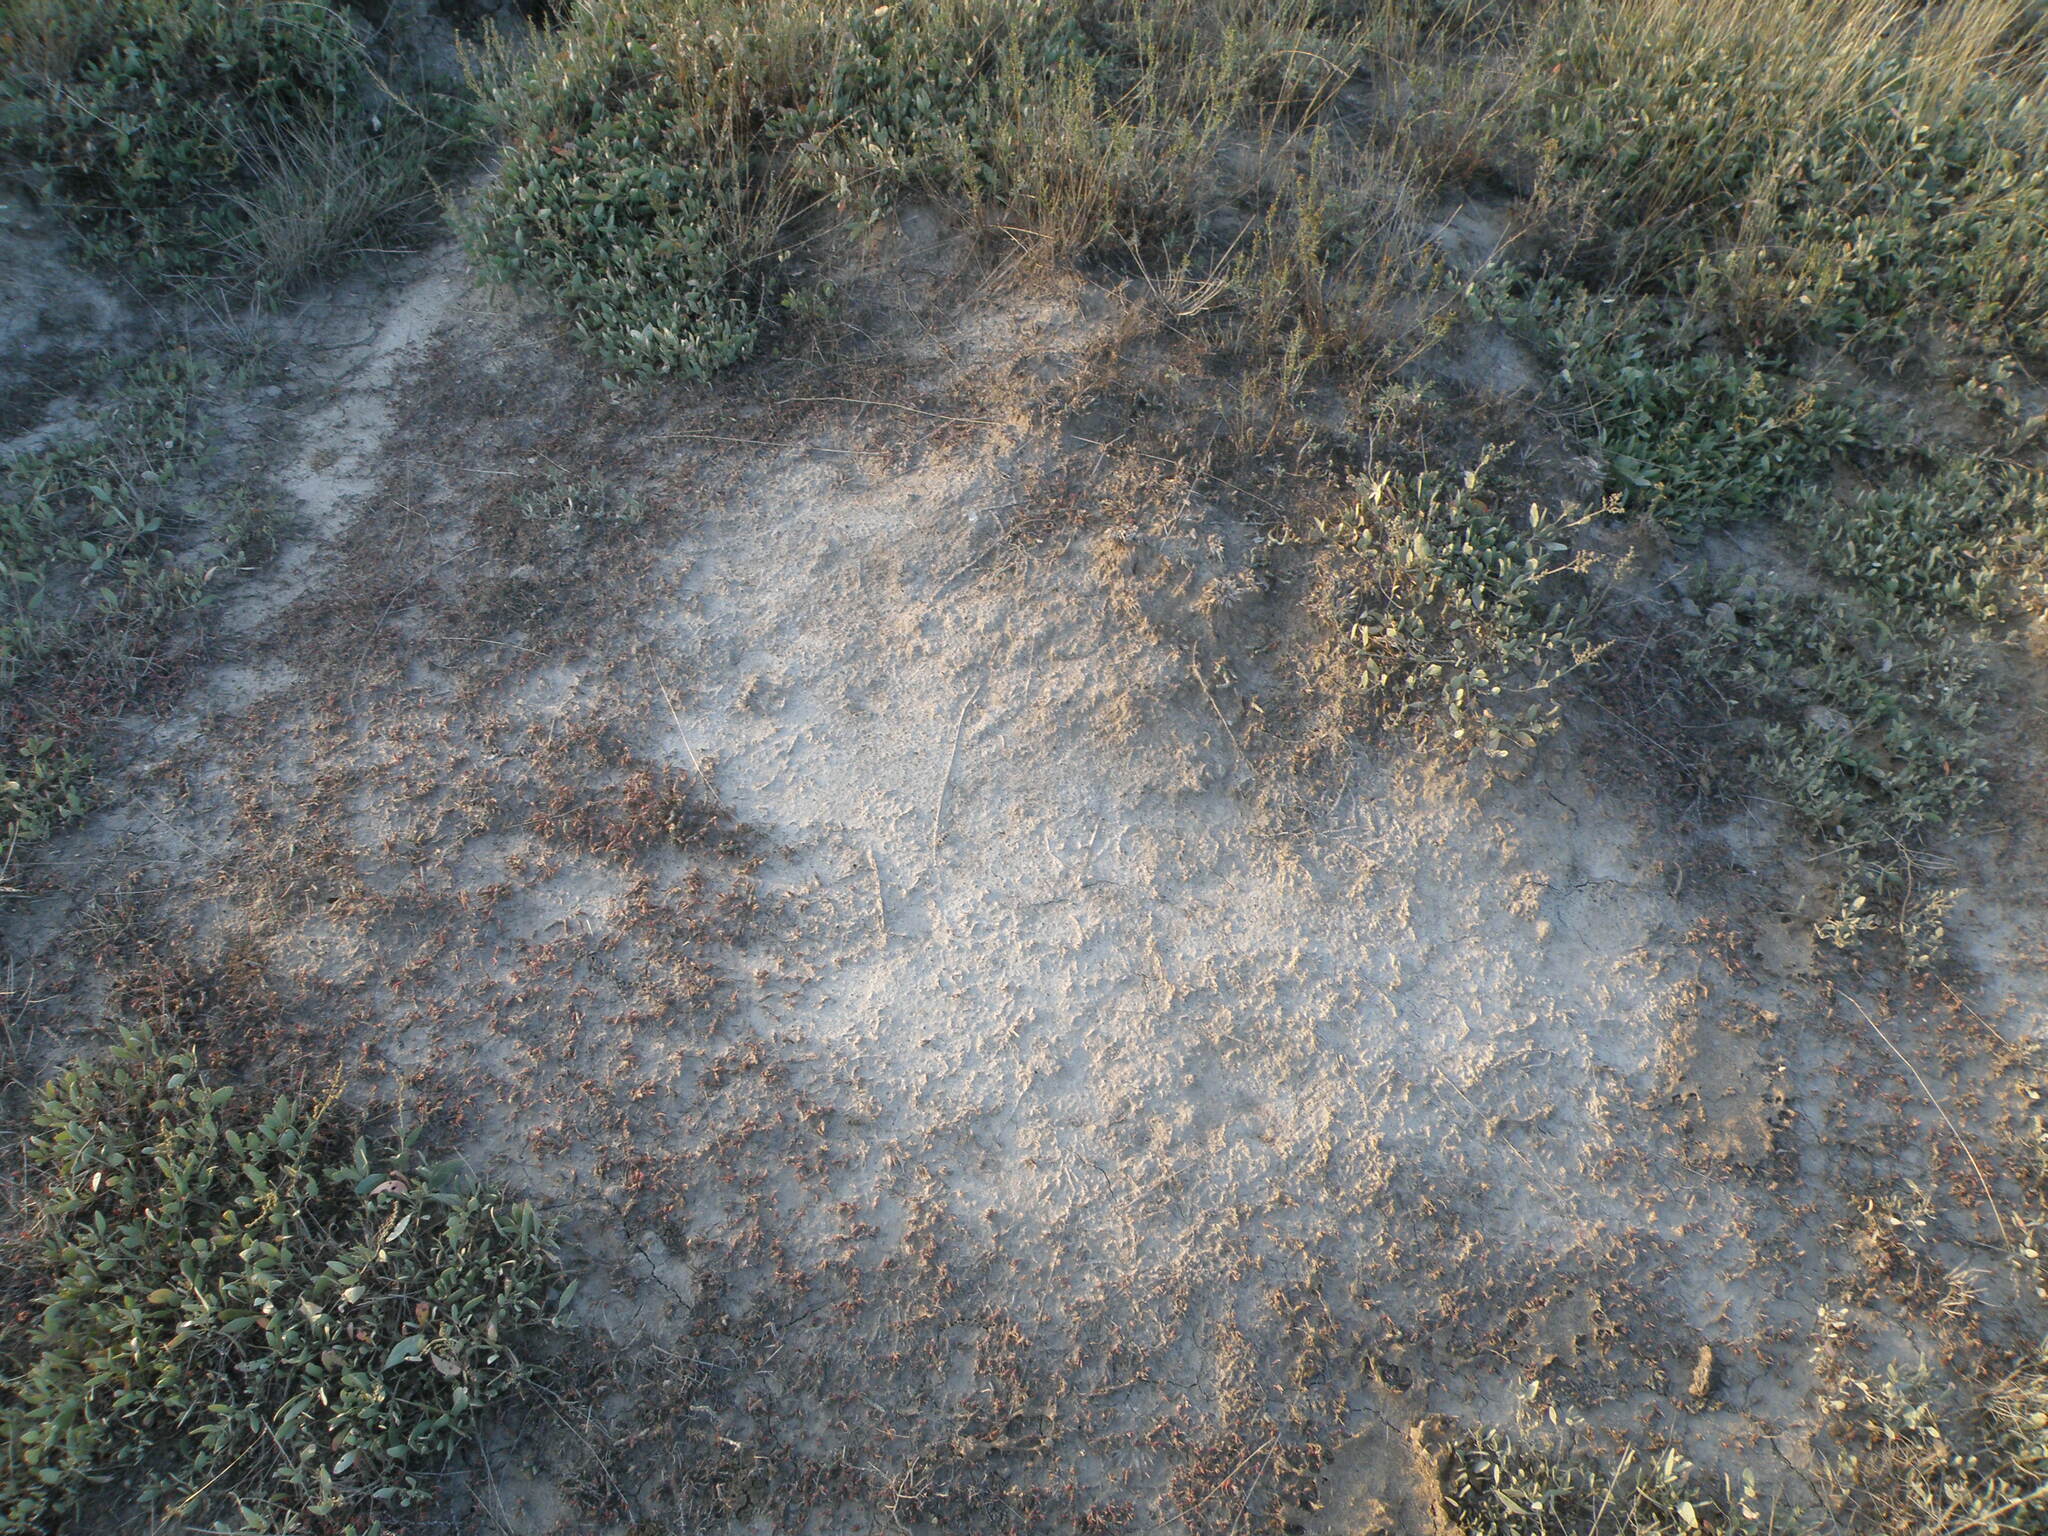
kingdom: Plantae
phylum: Tracheophyta
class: Magnoliopsida
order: Caryophyllales
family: Amaranthaceae
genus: Halimione
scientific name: Halimione verrucifera
